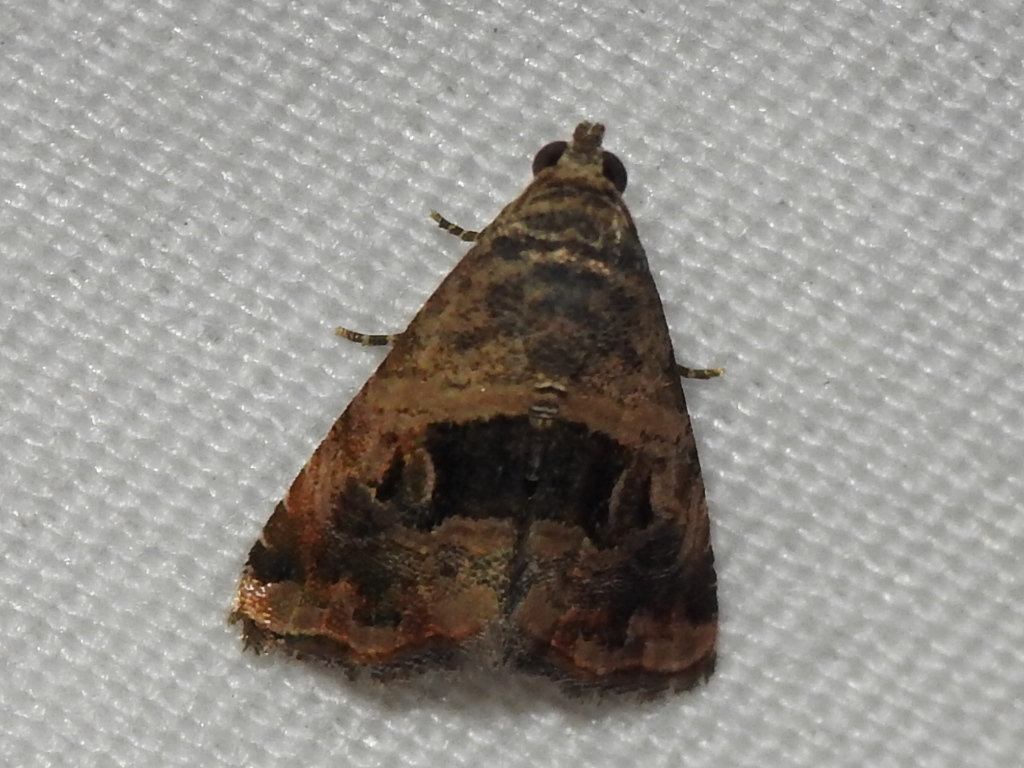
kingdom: Animalia
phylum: Arthropoda
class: Insecta
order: Lepidoptera
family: Noctuidae
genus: Tripudia
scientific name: Tripudia quadrifera
